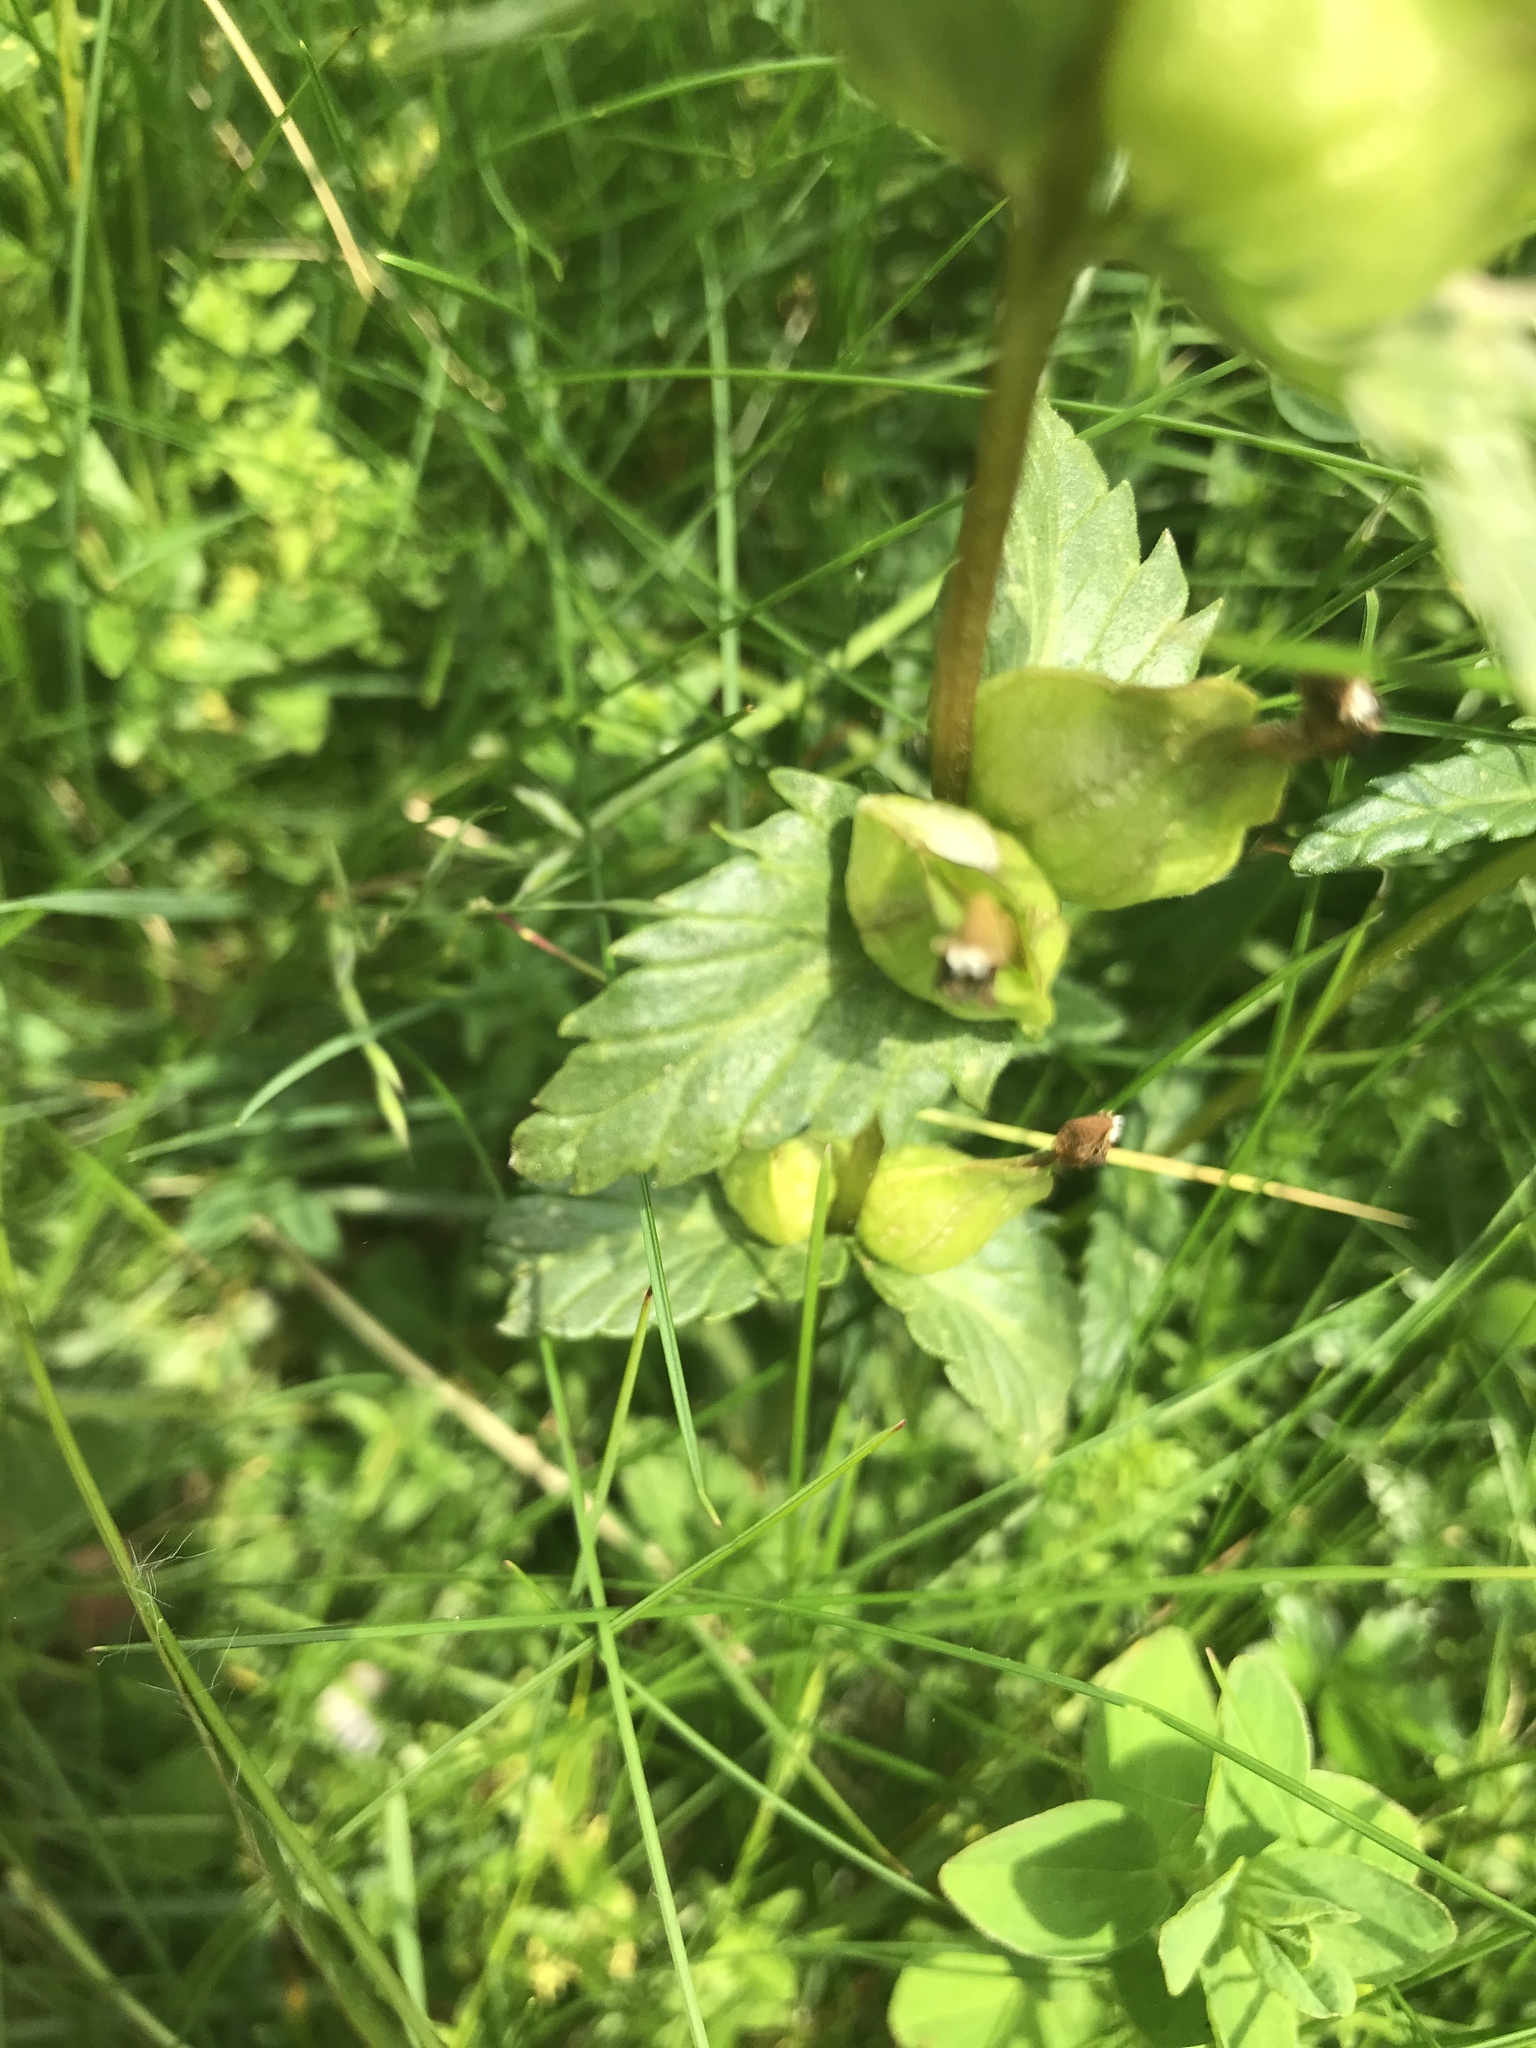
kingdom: Plantae
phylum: Tracheophyta
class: Magnoliopsida
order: Lamiales
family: Orobanchaceae
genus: Rhinanthus
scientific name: Rhinanthus minor
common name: Yellow-rattle
